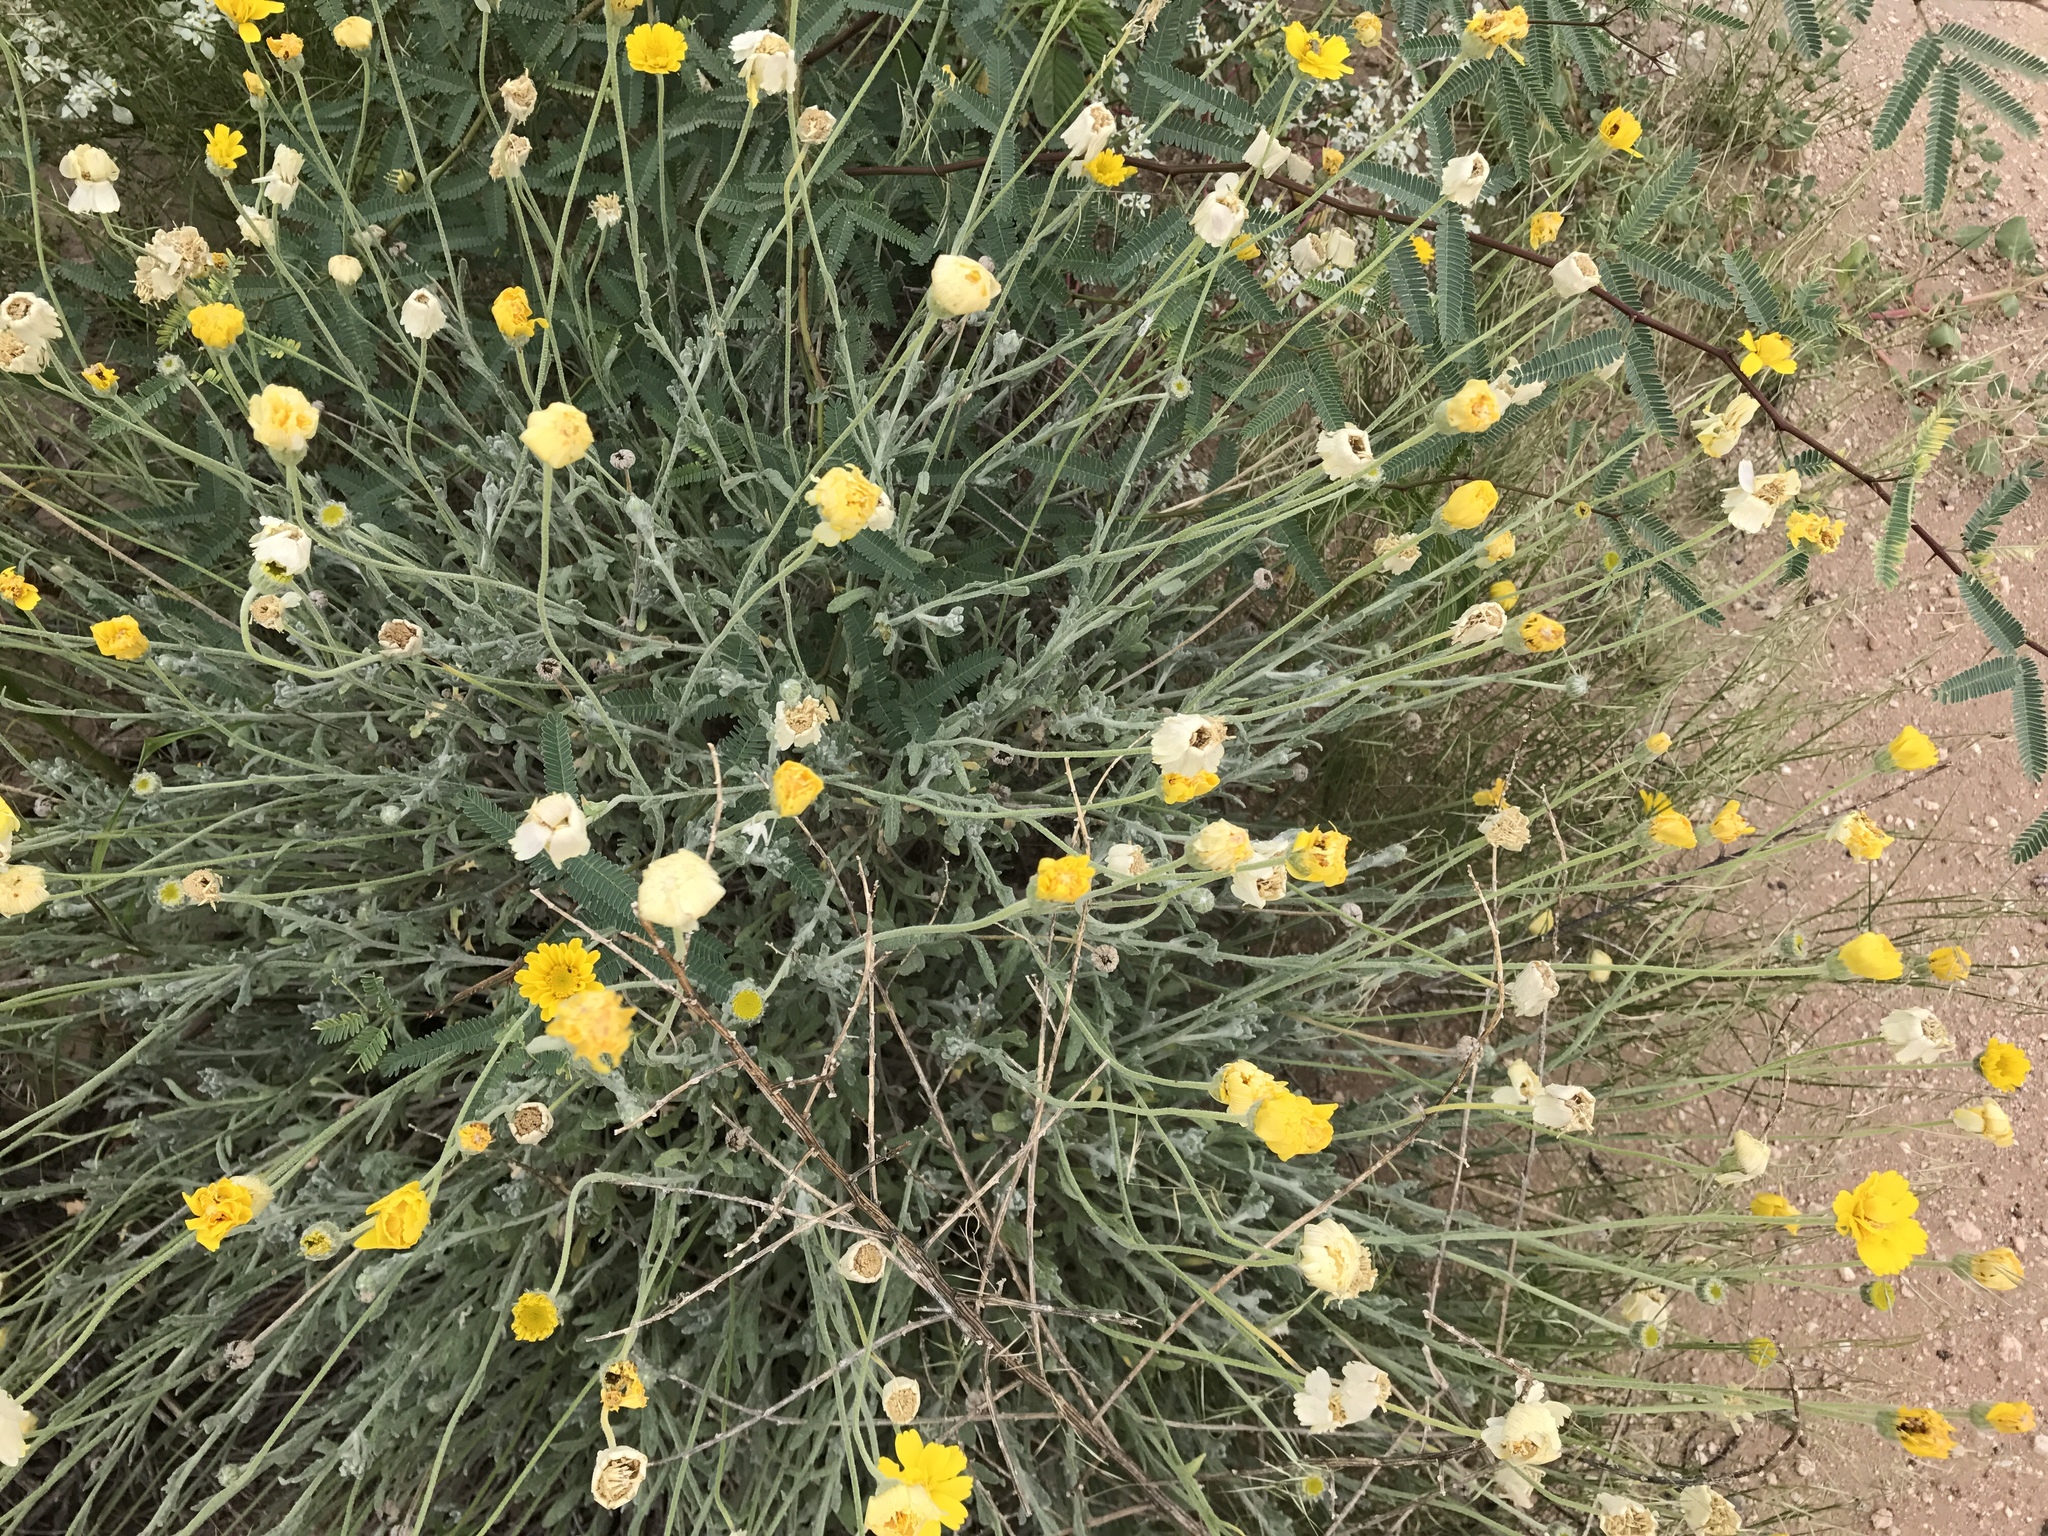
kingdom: Plantae
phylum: Tracheophyta
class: Magnoliopsida
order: Asterales
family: Asteraceae
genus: Baileya
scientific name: Baileya multiradiata
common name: Desert-marigold
